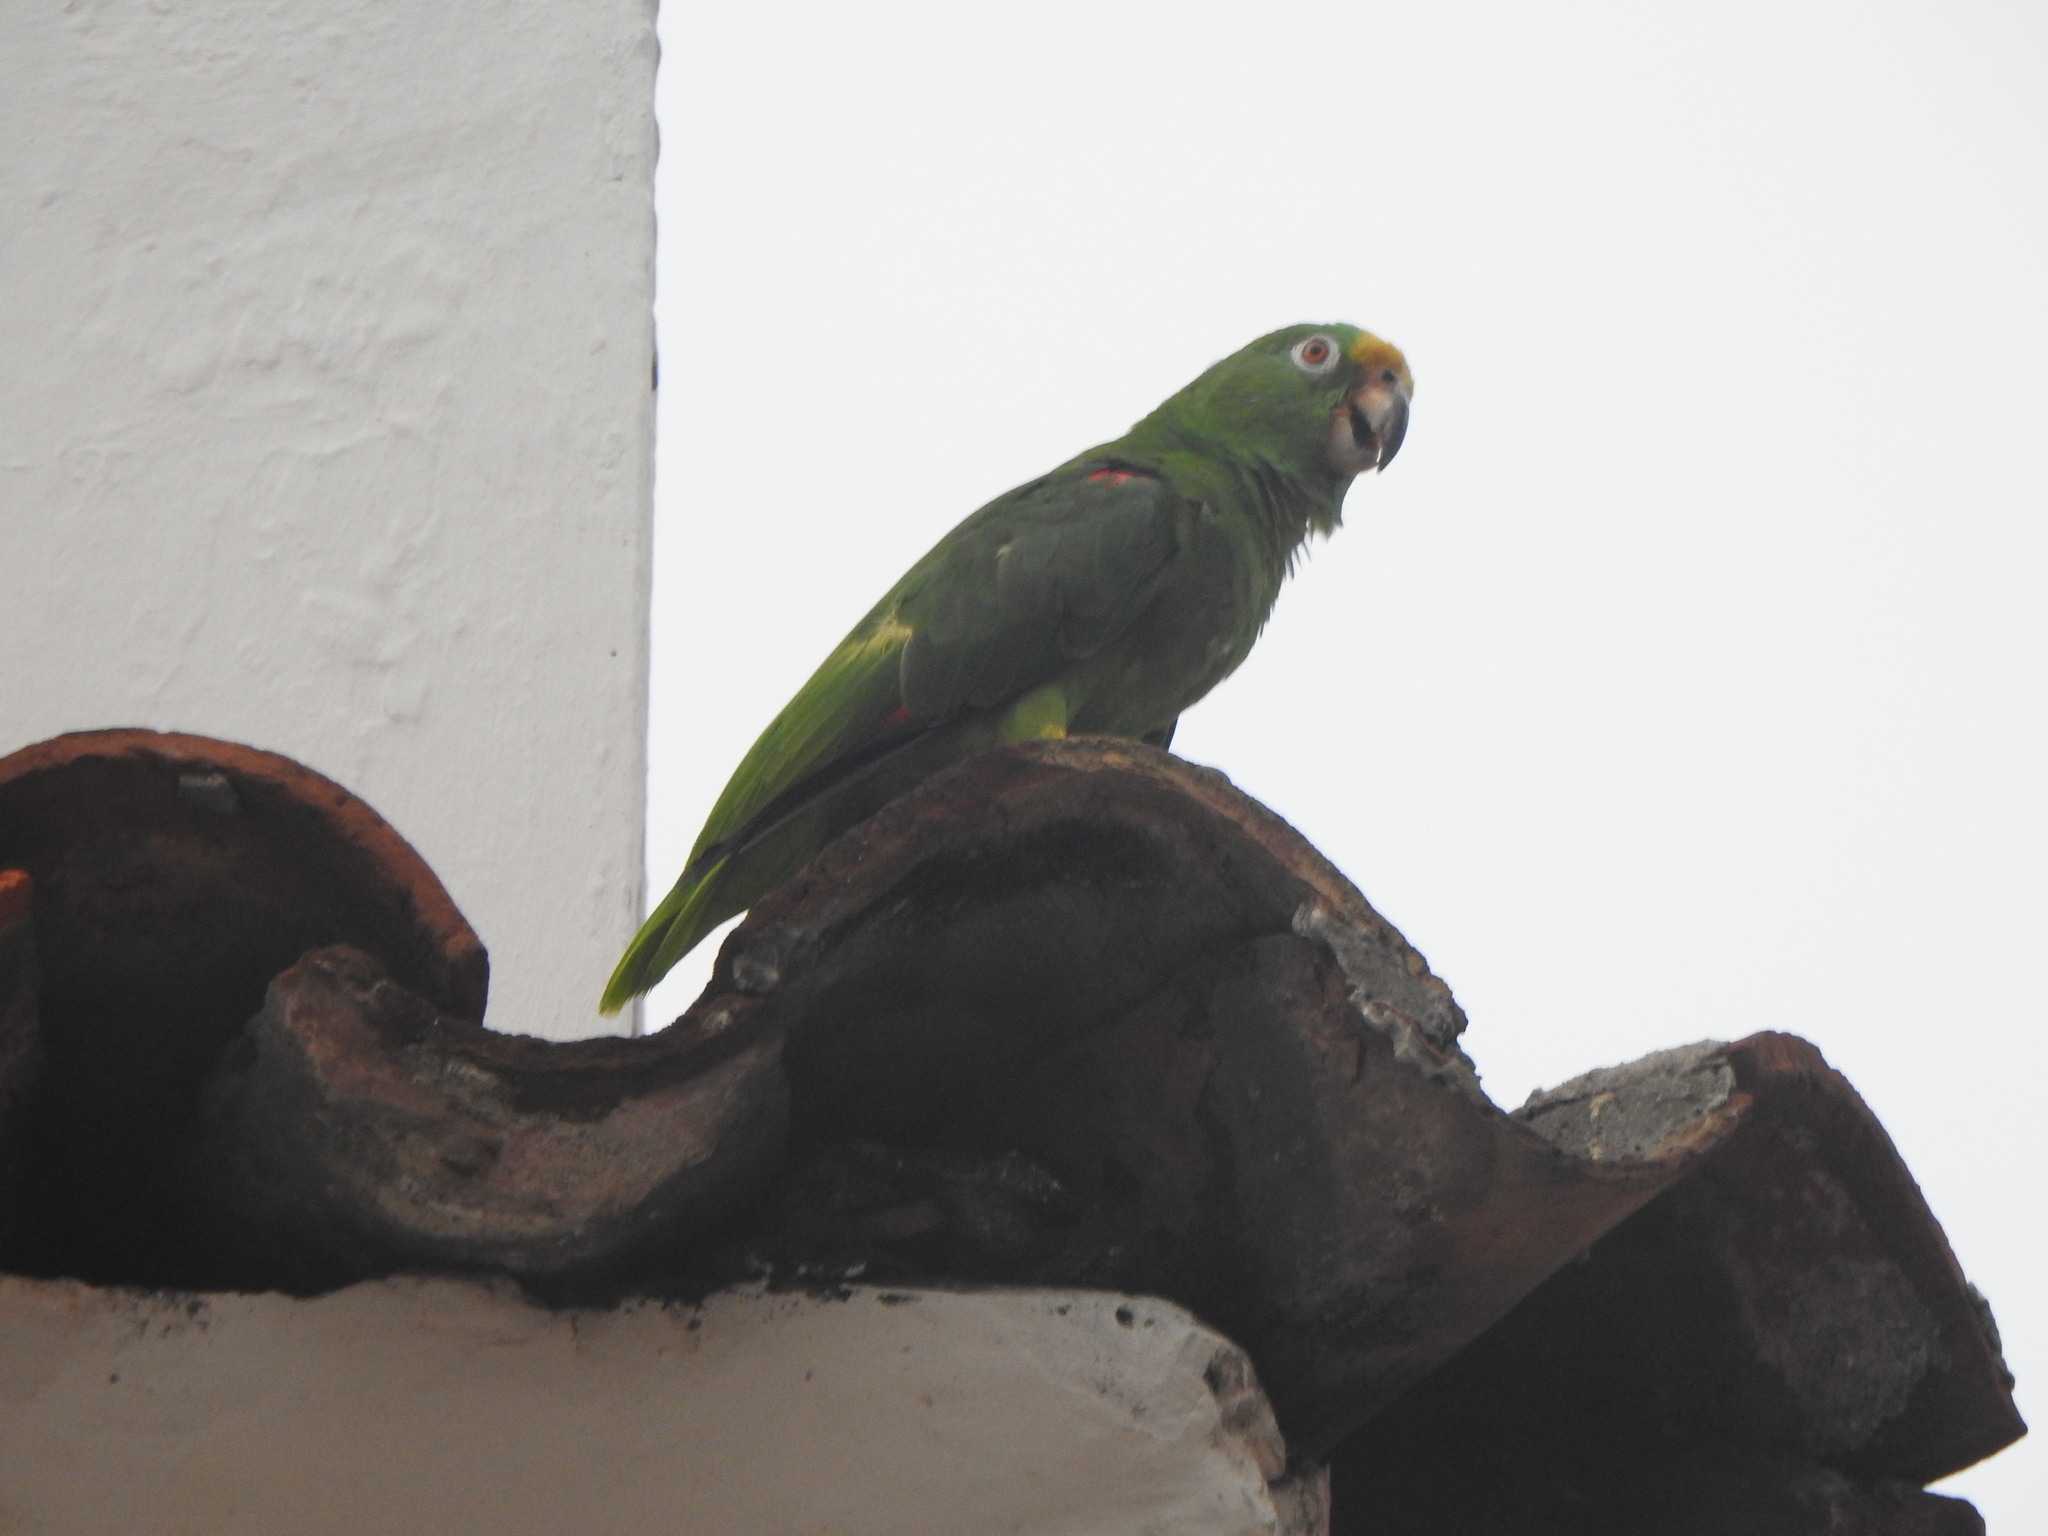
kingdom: Animalia
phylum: Chordata
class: Aves
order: Psittaciformes
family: Psittacidae
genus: Amazona
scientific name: Amazona ochrocephala
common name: Yellow-crowned amazon
